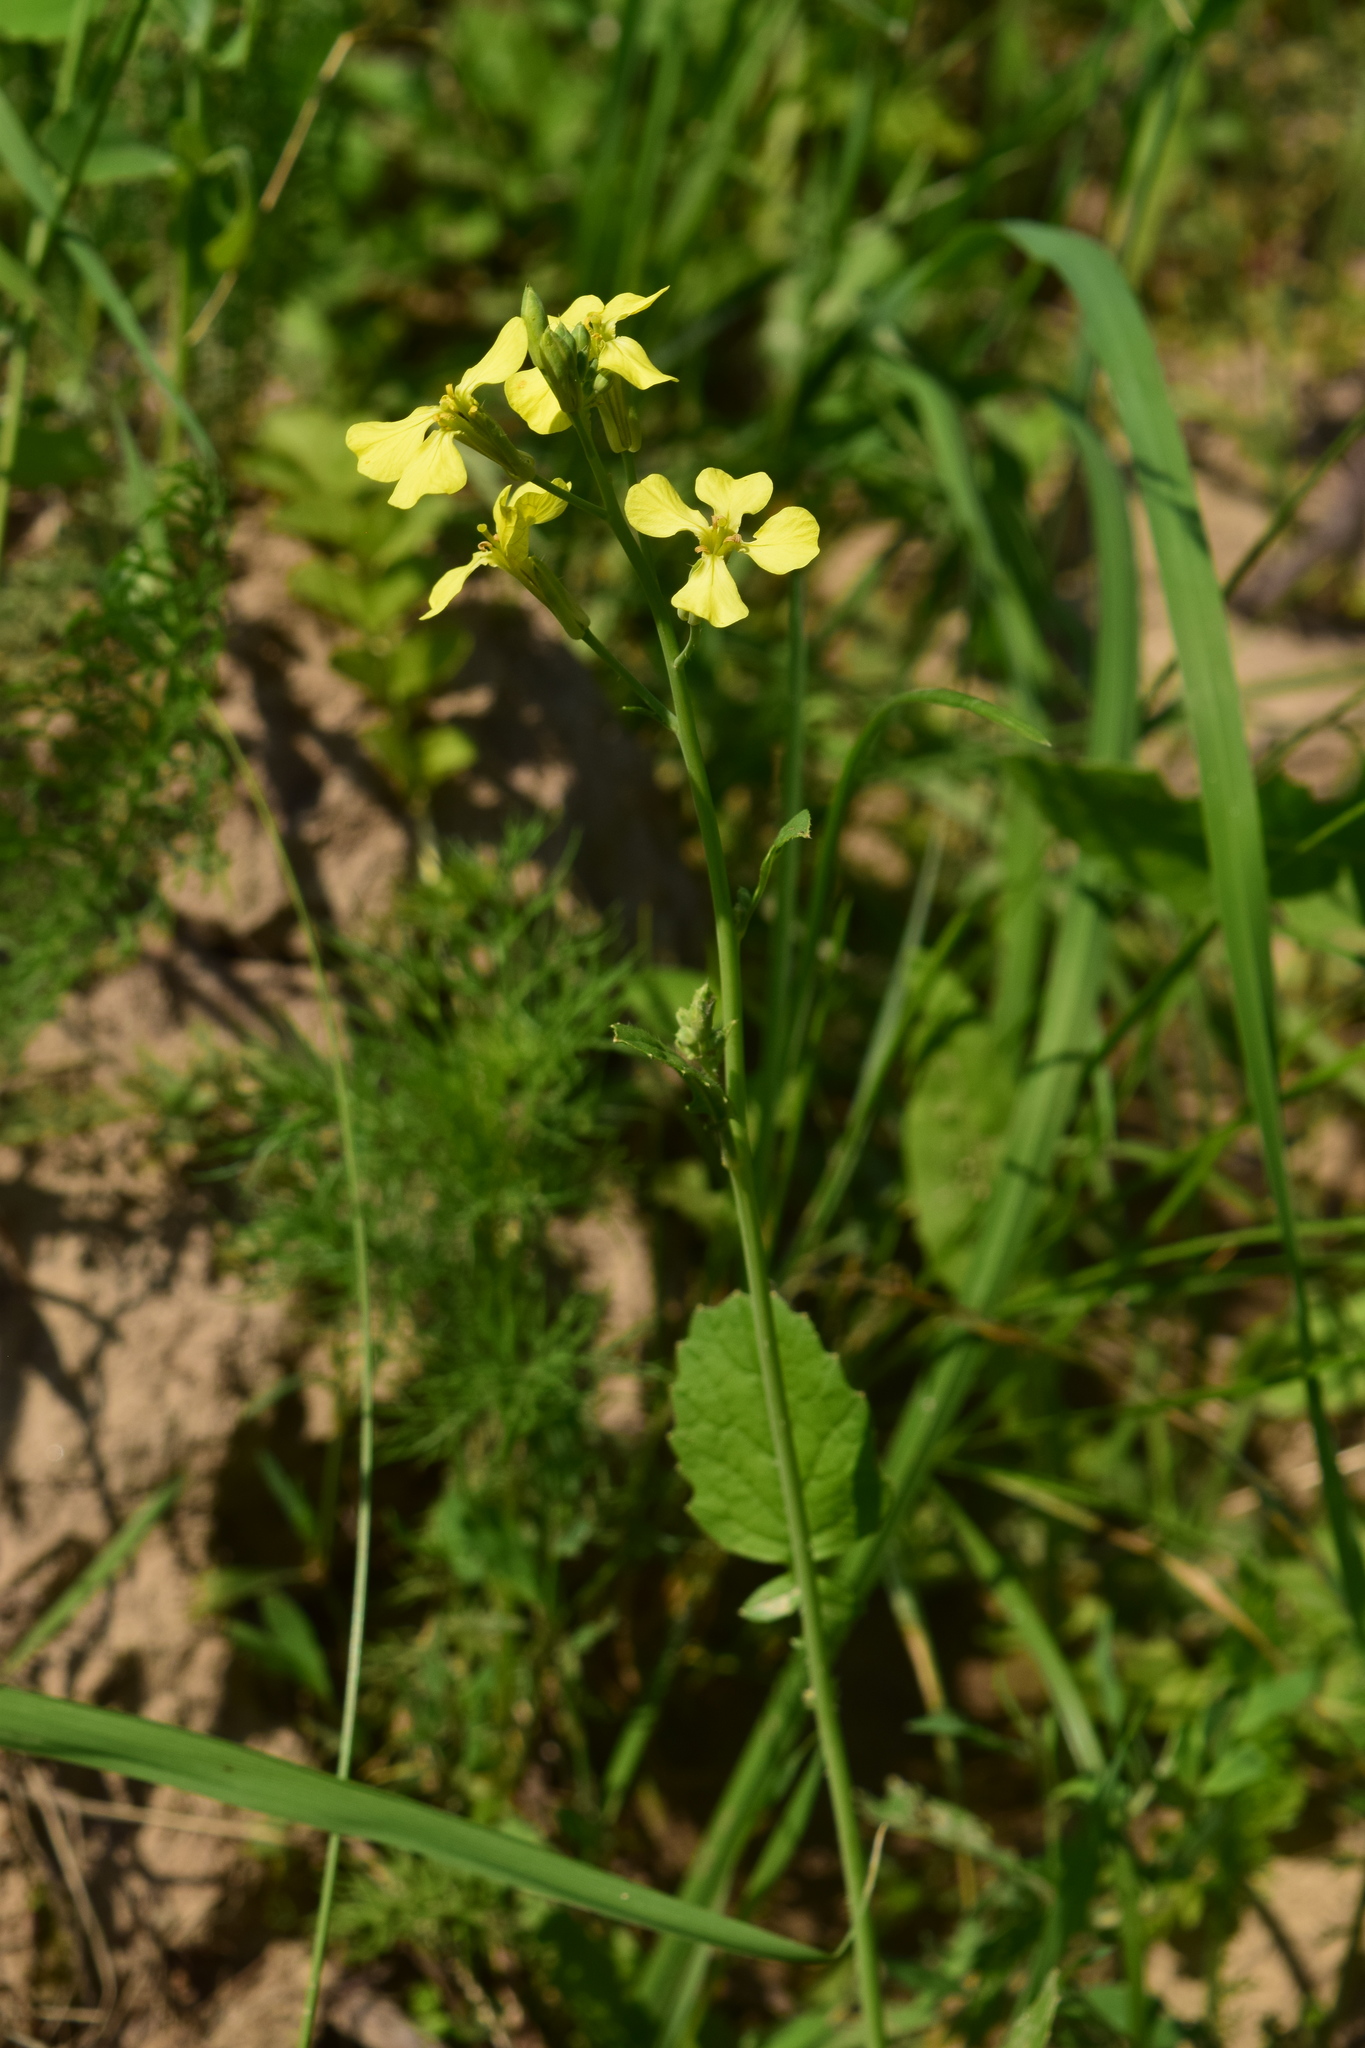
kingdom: Plantae
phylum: Tracheophyta
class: Magnoliopsida
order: Brassicales
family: Brassicaceae
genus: Raphanus
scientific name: Raphanus raphanistrum
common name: Wild radish
